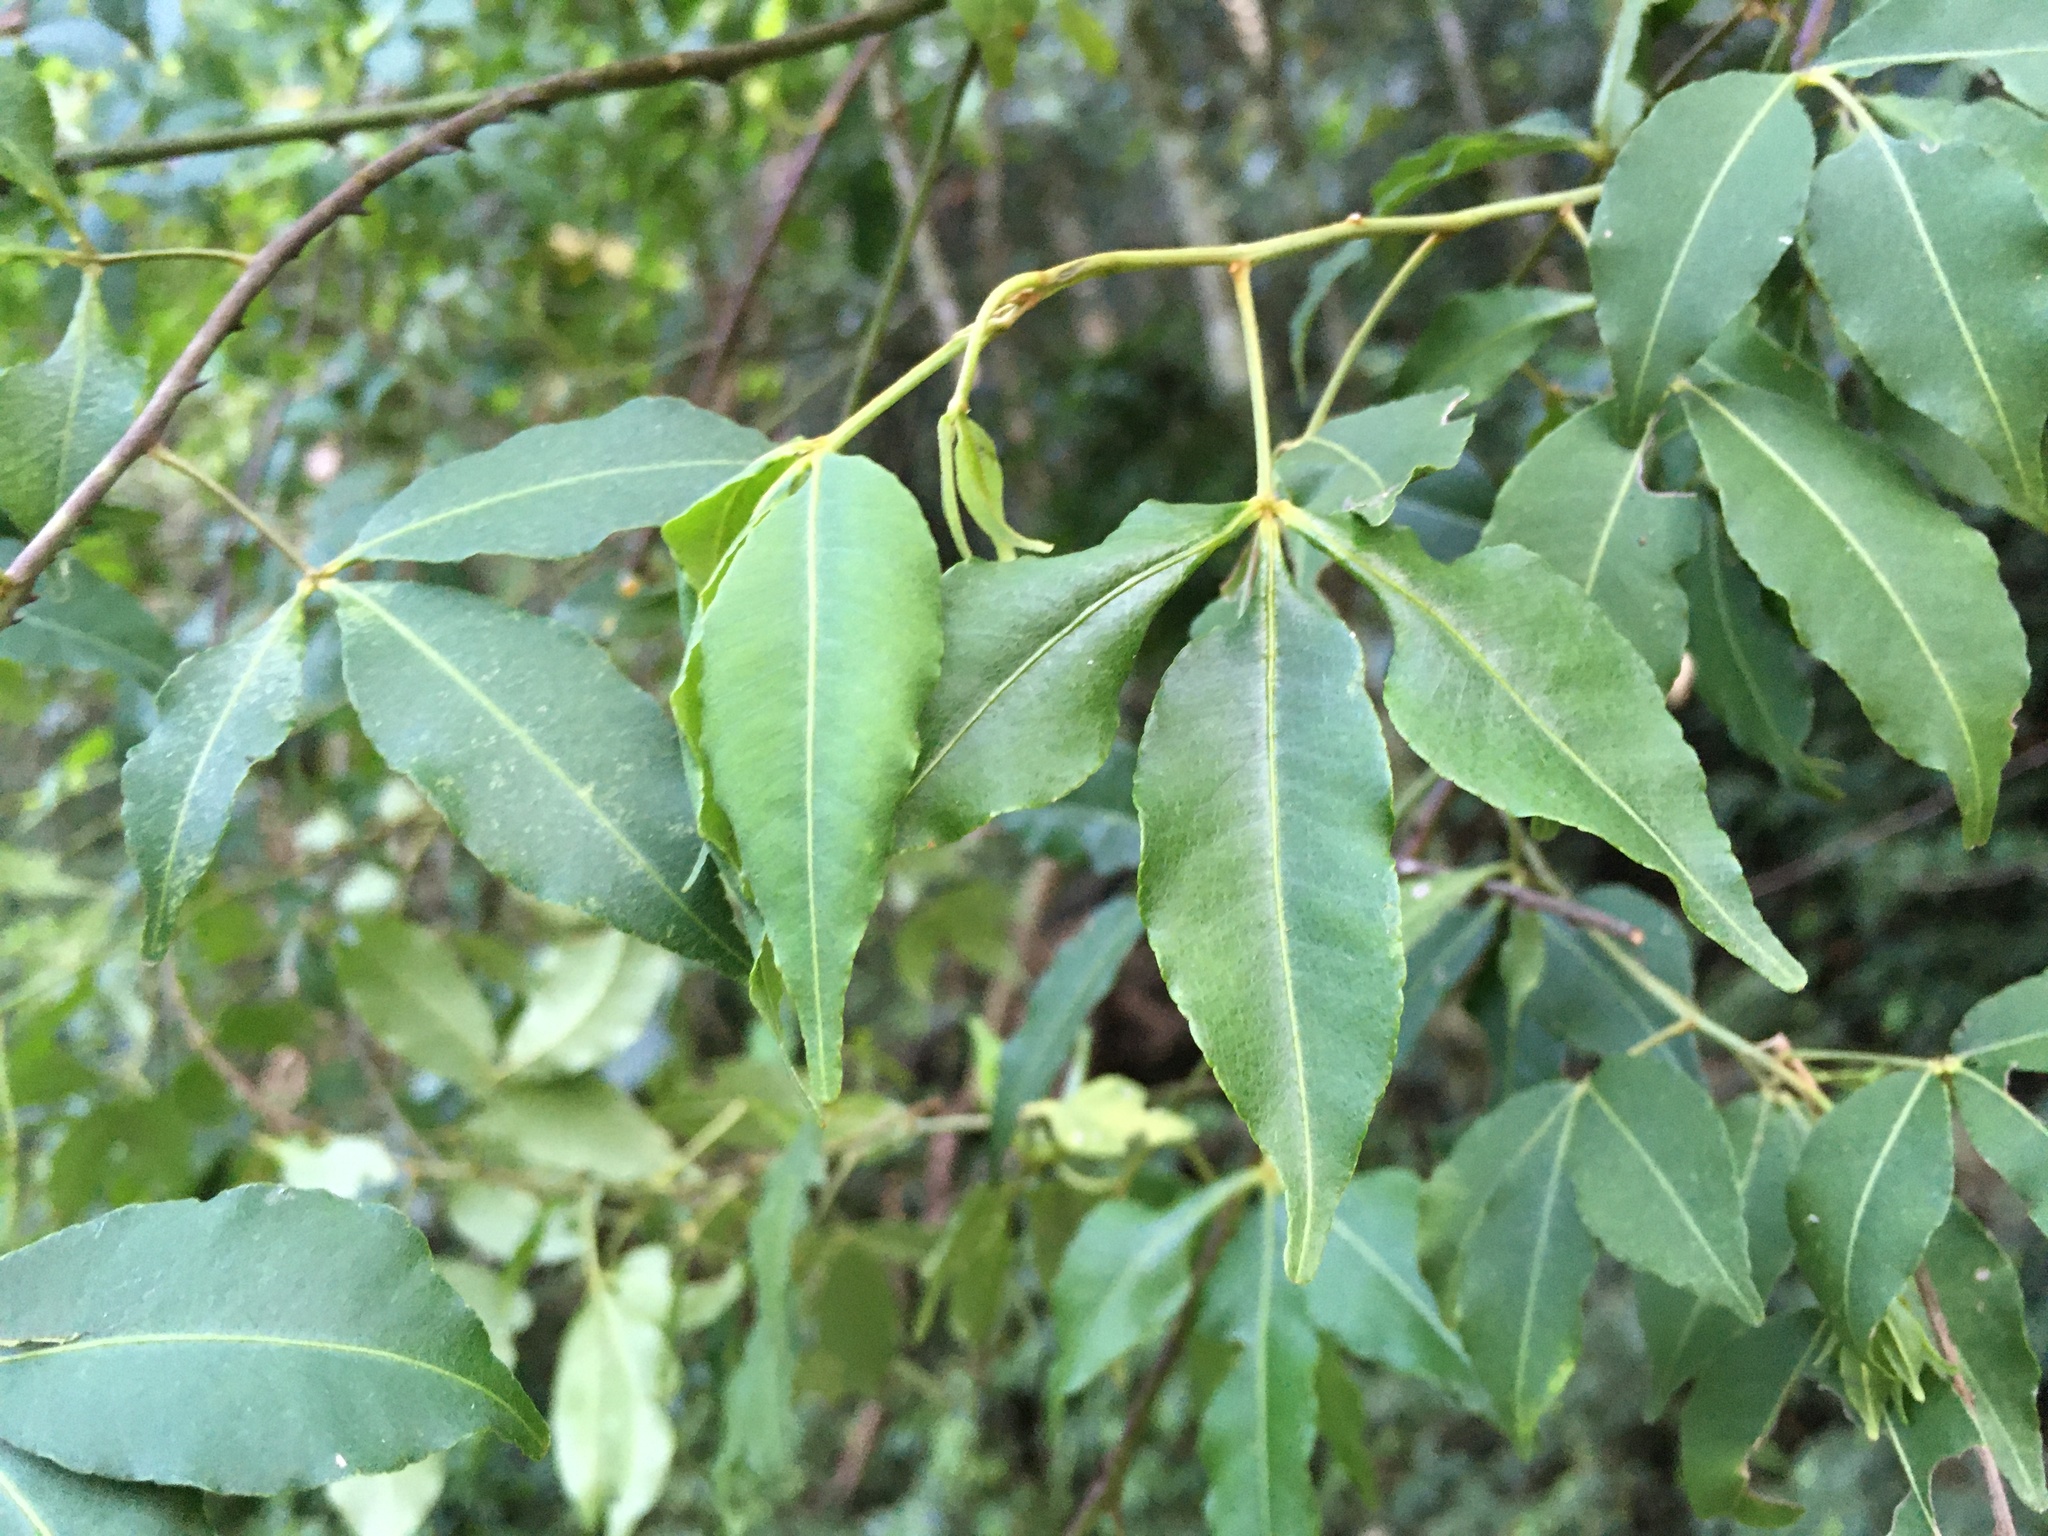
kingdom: Plantae
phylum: Tracheophyta
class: Magnoliopsida
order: Sapindales
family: Rutaceae
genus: Zanthoxylum
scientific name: Zanthoxylum asiaticum
